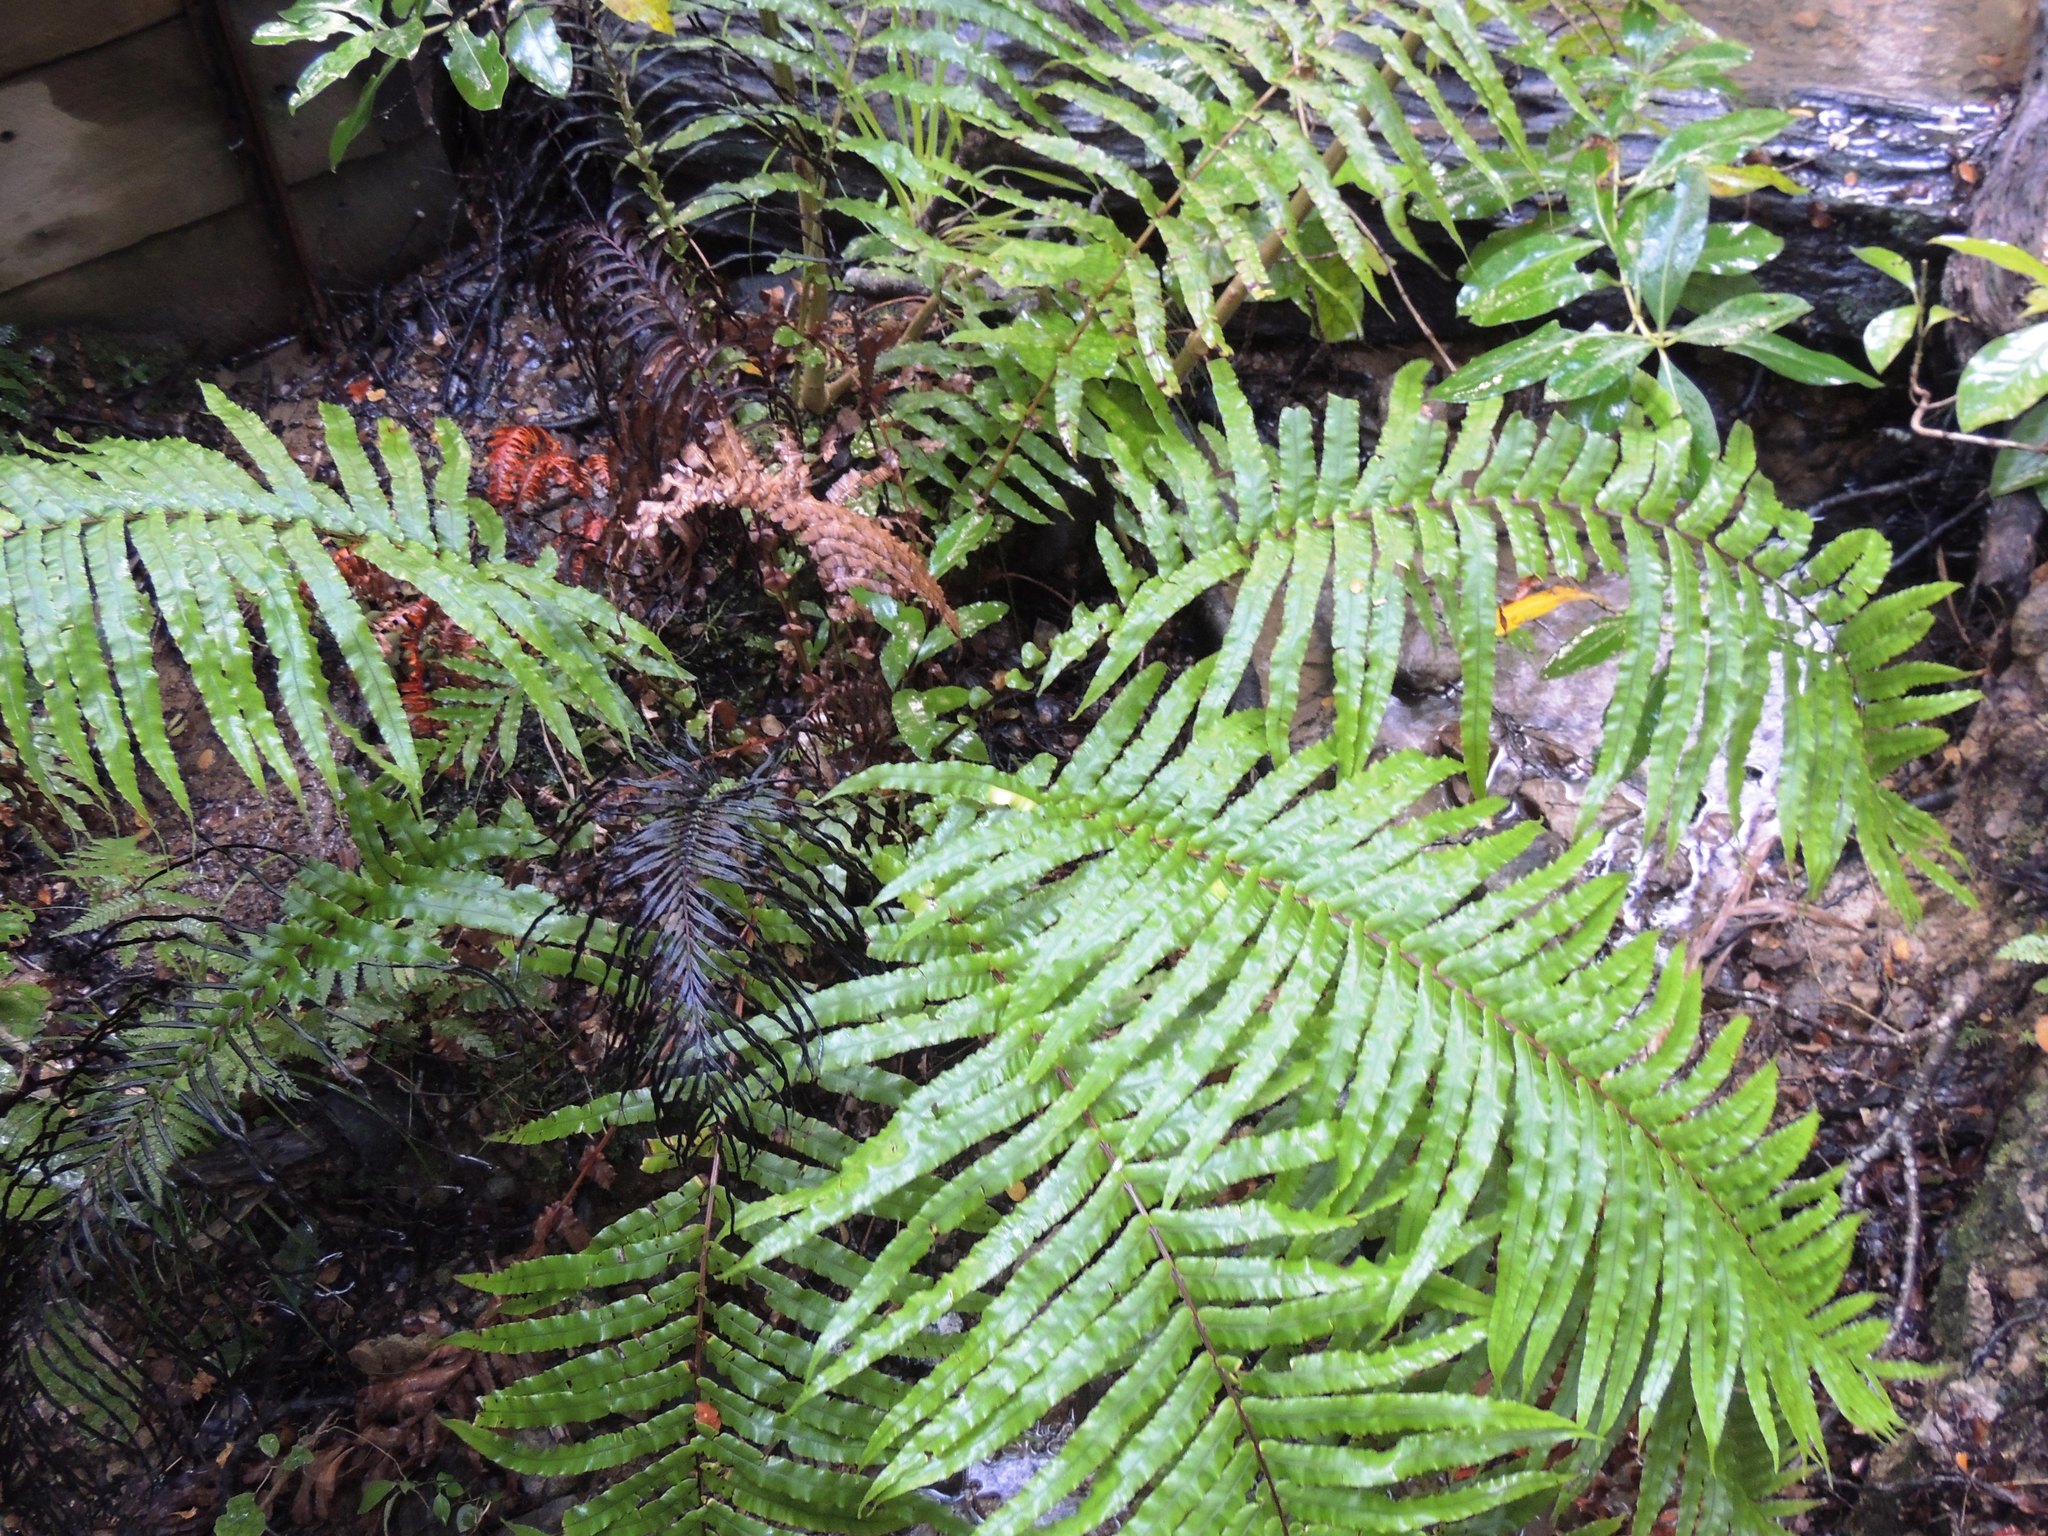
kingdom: Plantae
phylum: Tracheophyta
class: Polypodiopsida
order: Polypodiales
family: Blechnaceae
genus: Parablechnum
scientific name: Parablechnum novae-zelandiae
